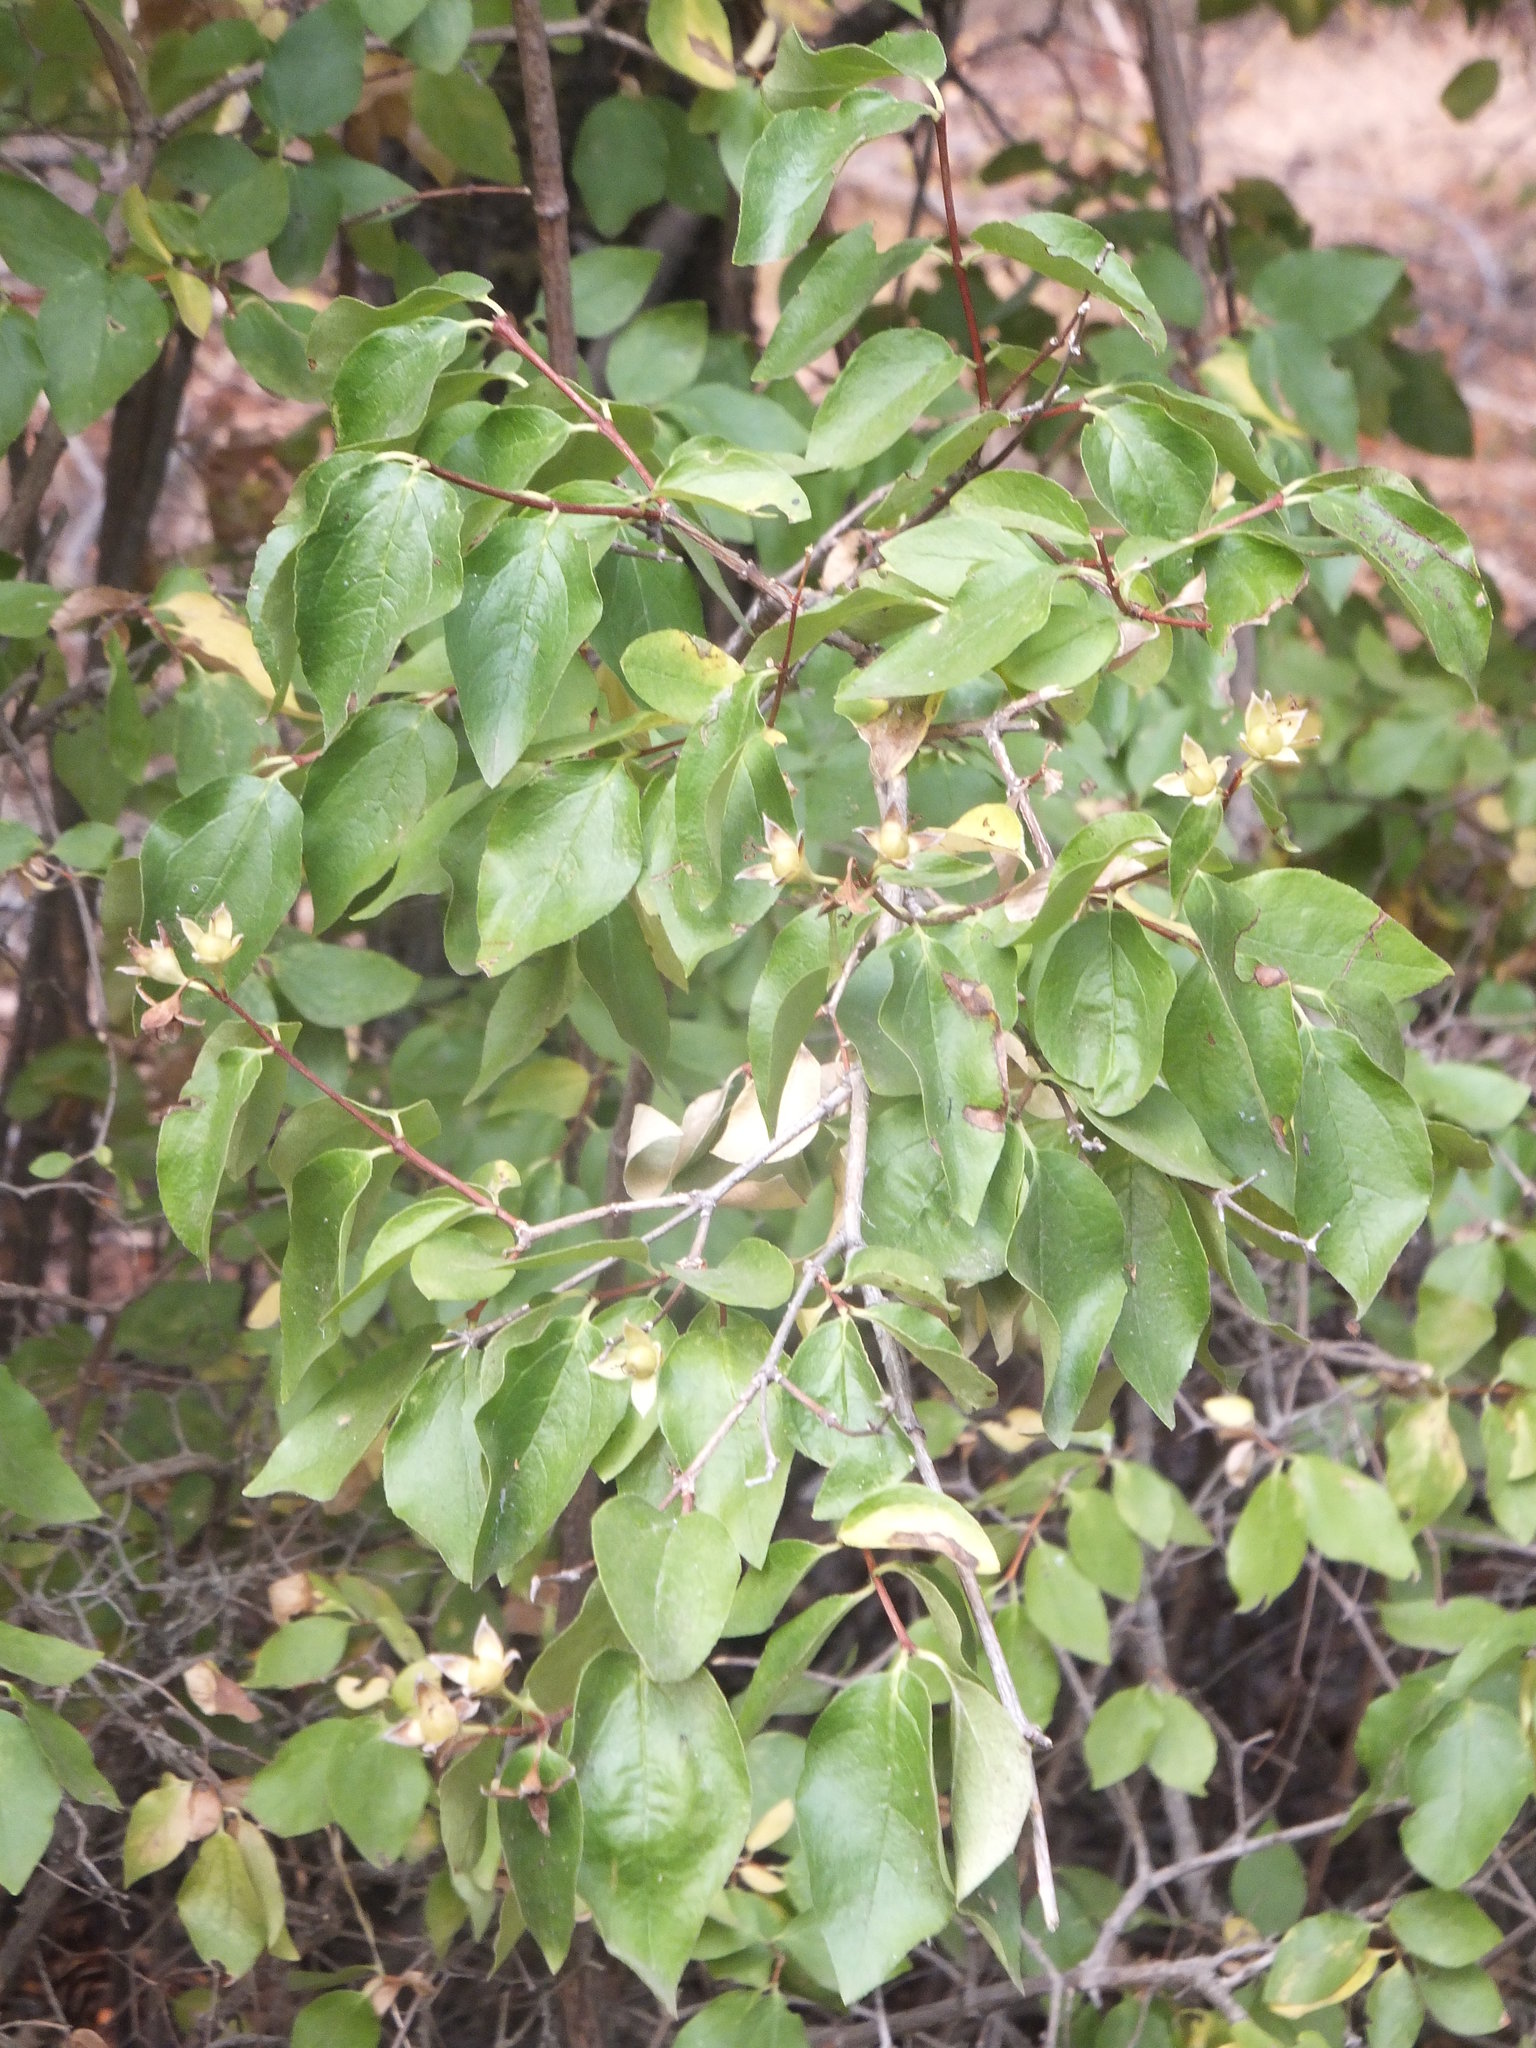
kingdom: Plantae
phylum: Tracheophyta
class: Magnoliopsida
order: Cornales
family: Hydrangeaceae
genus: Philadelphus
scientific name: Philadelphus lewisii
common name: Lewis's mock orange
